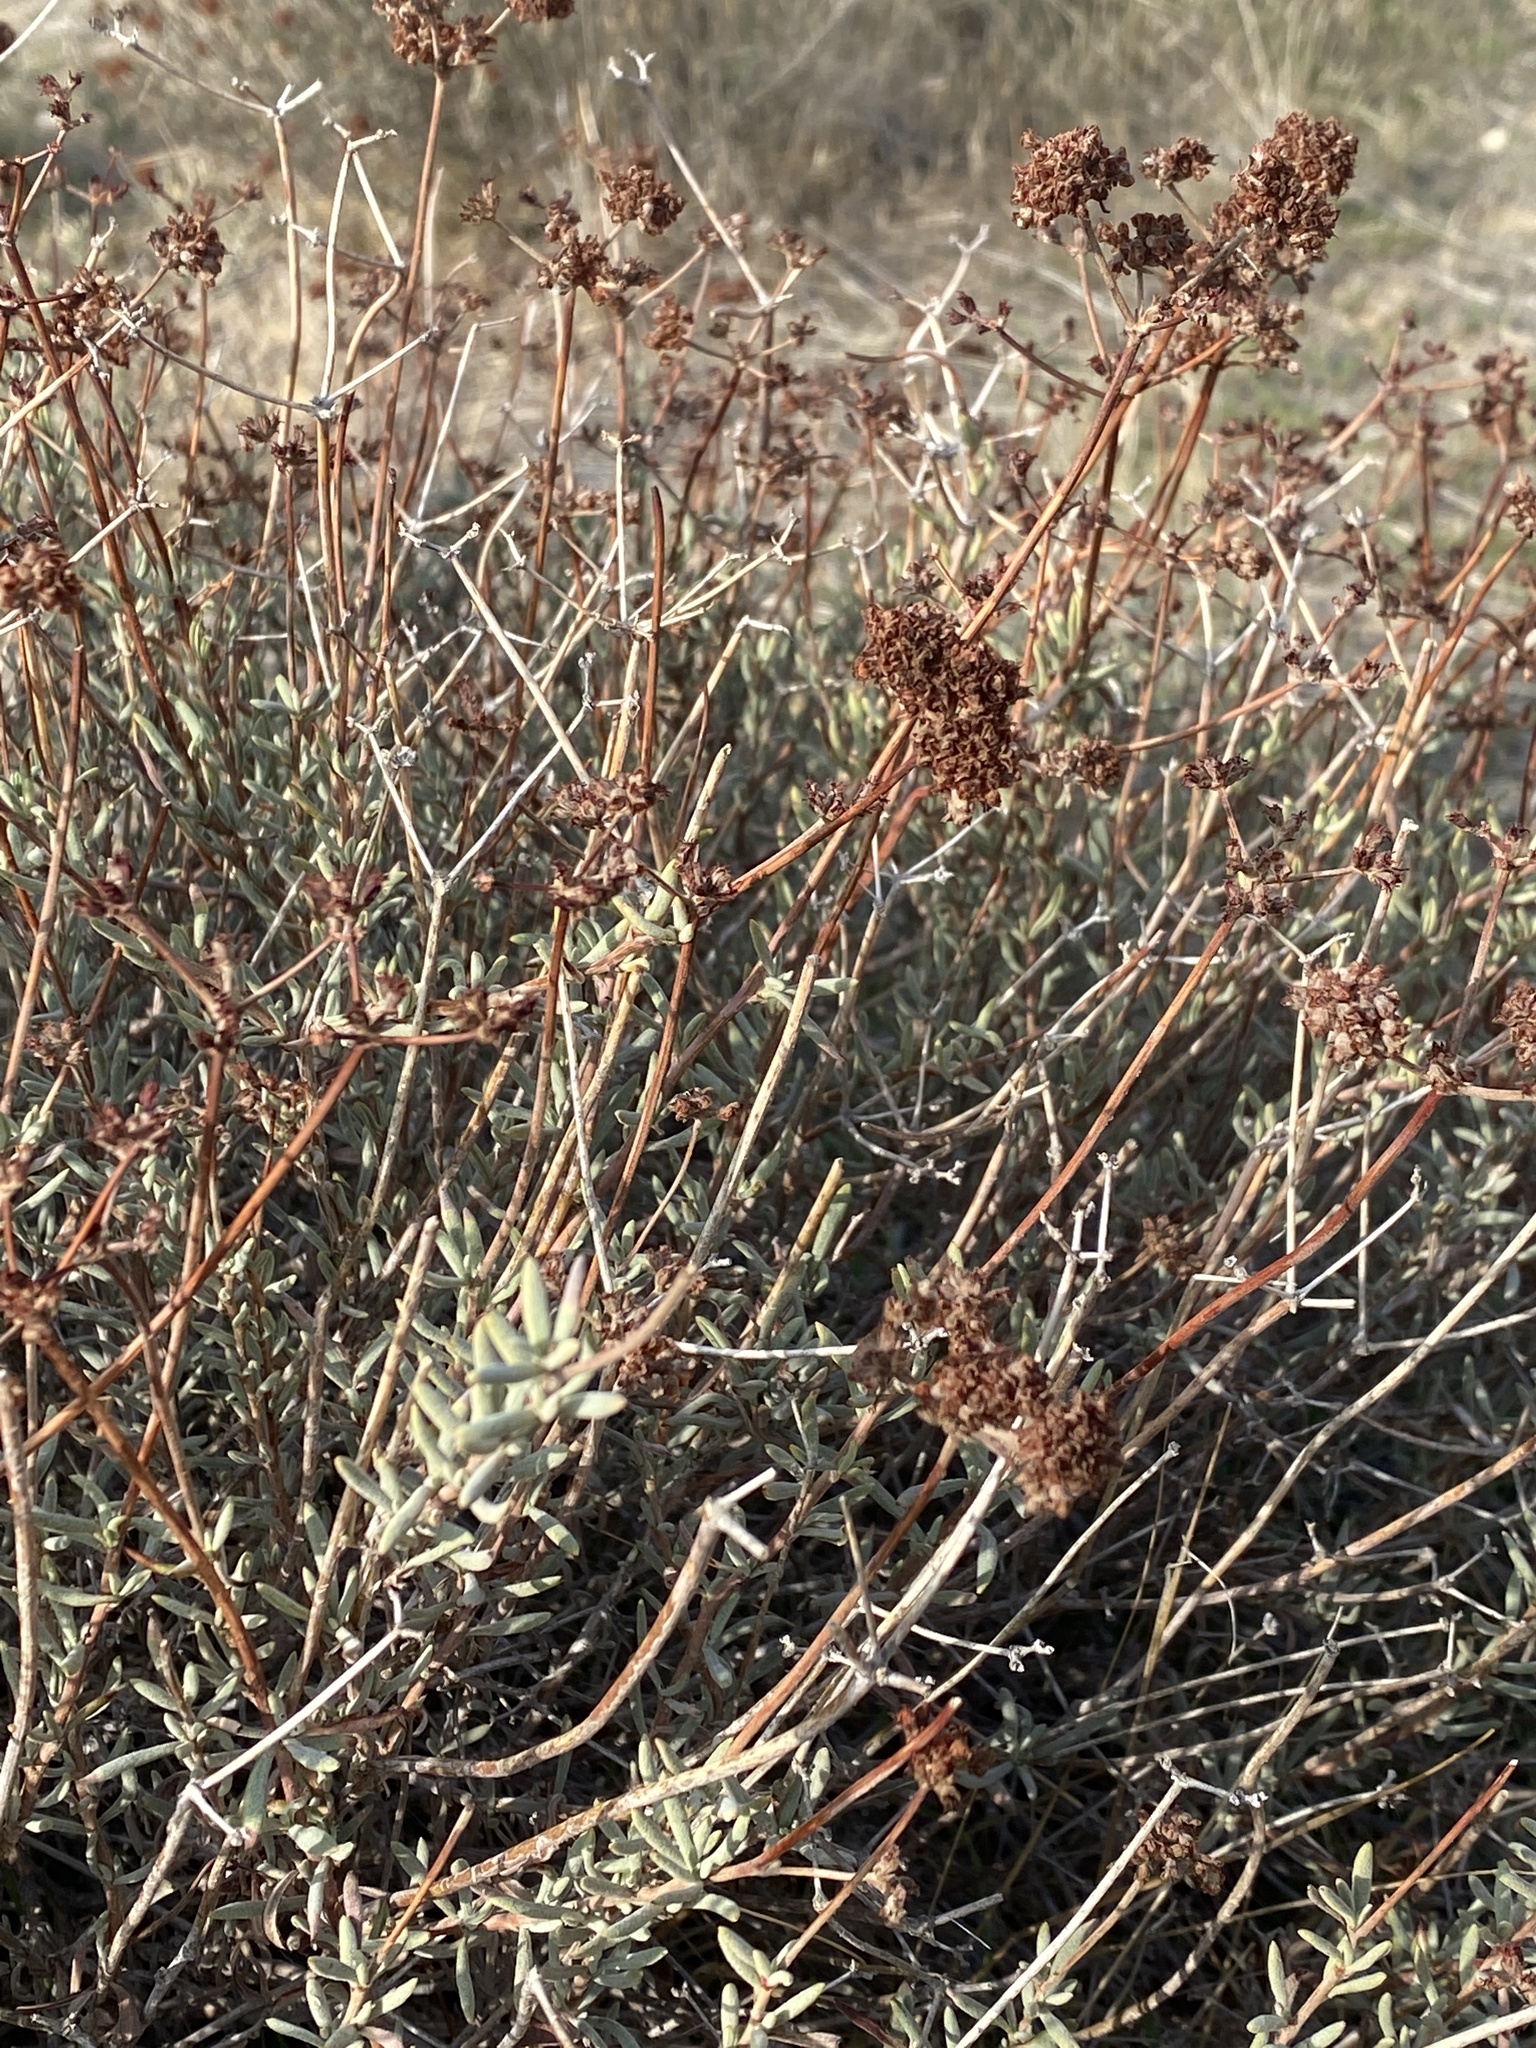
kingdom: Plantae
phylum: Tracheophyta
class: Magnoliopsida
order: Caryophyllales
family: Polygonaceae
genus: Eriogonum
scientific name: Eriogonum fasciculatum
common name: California wild buckwheat
